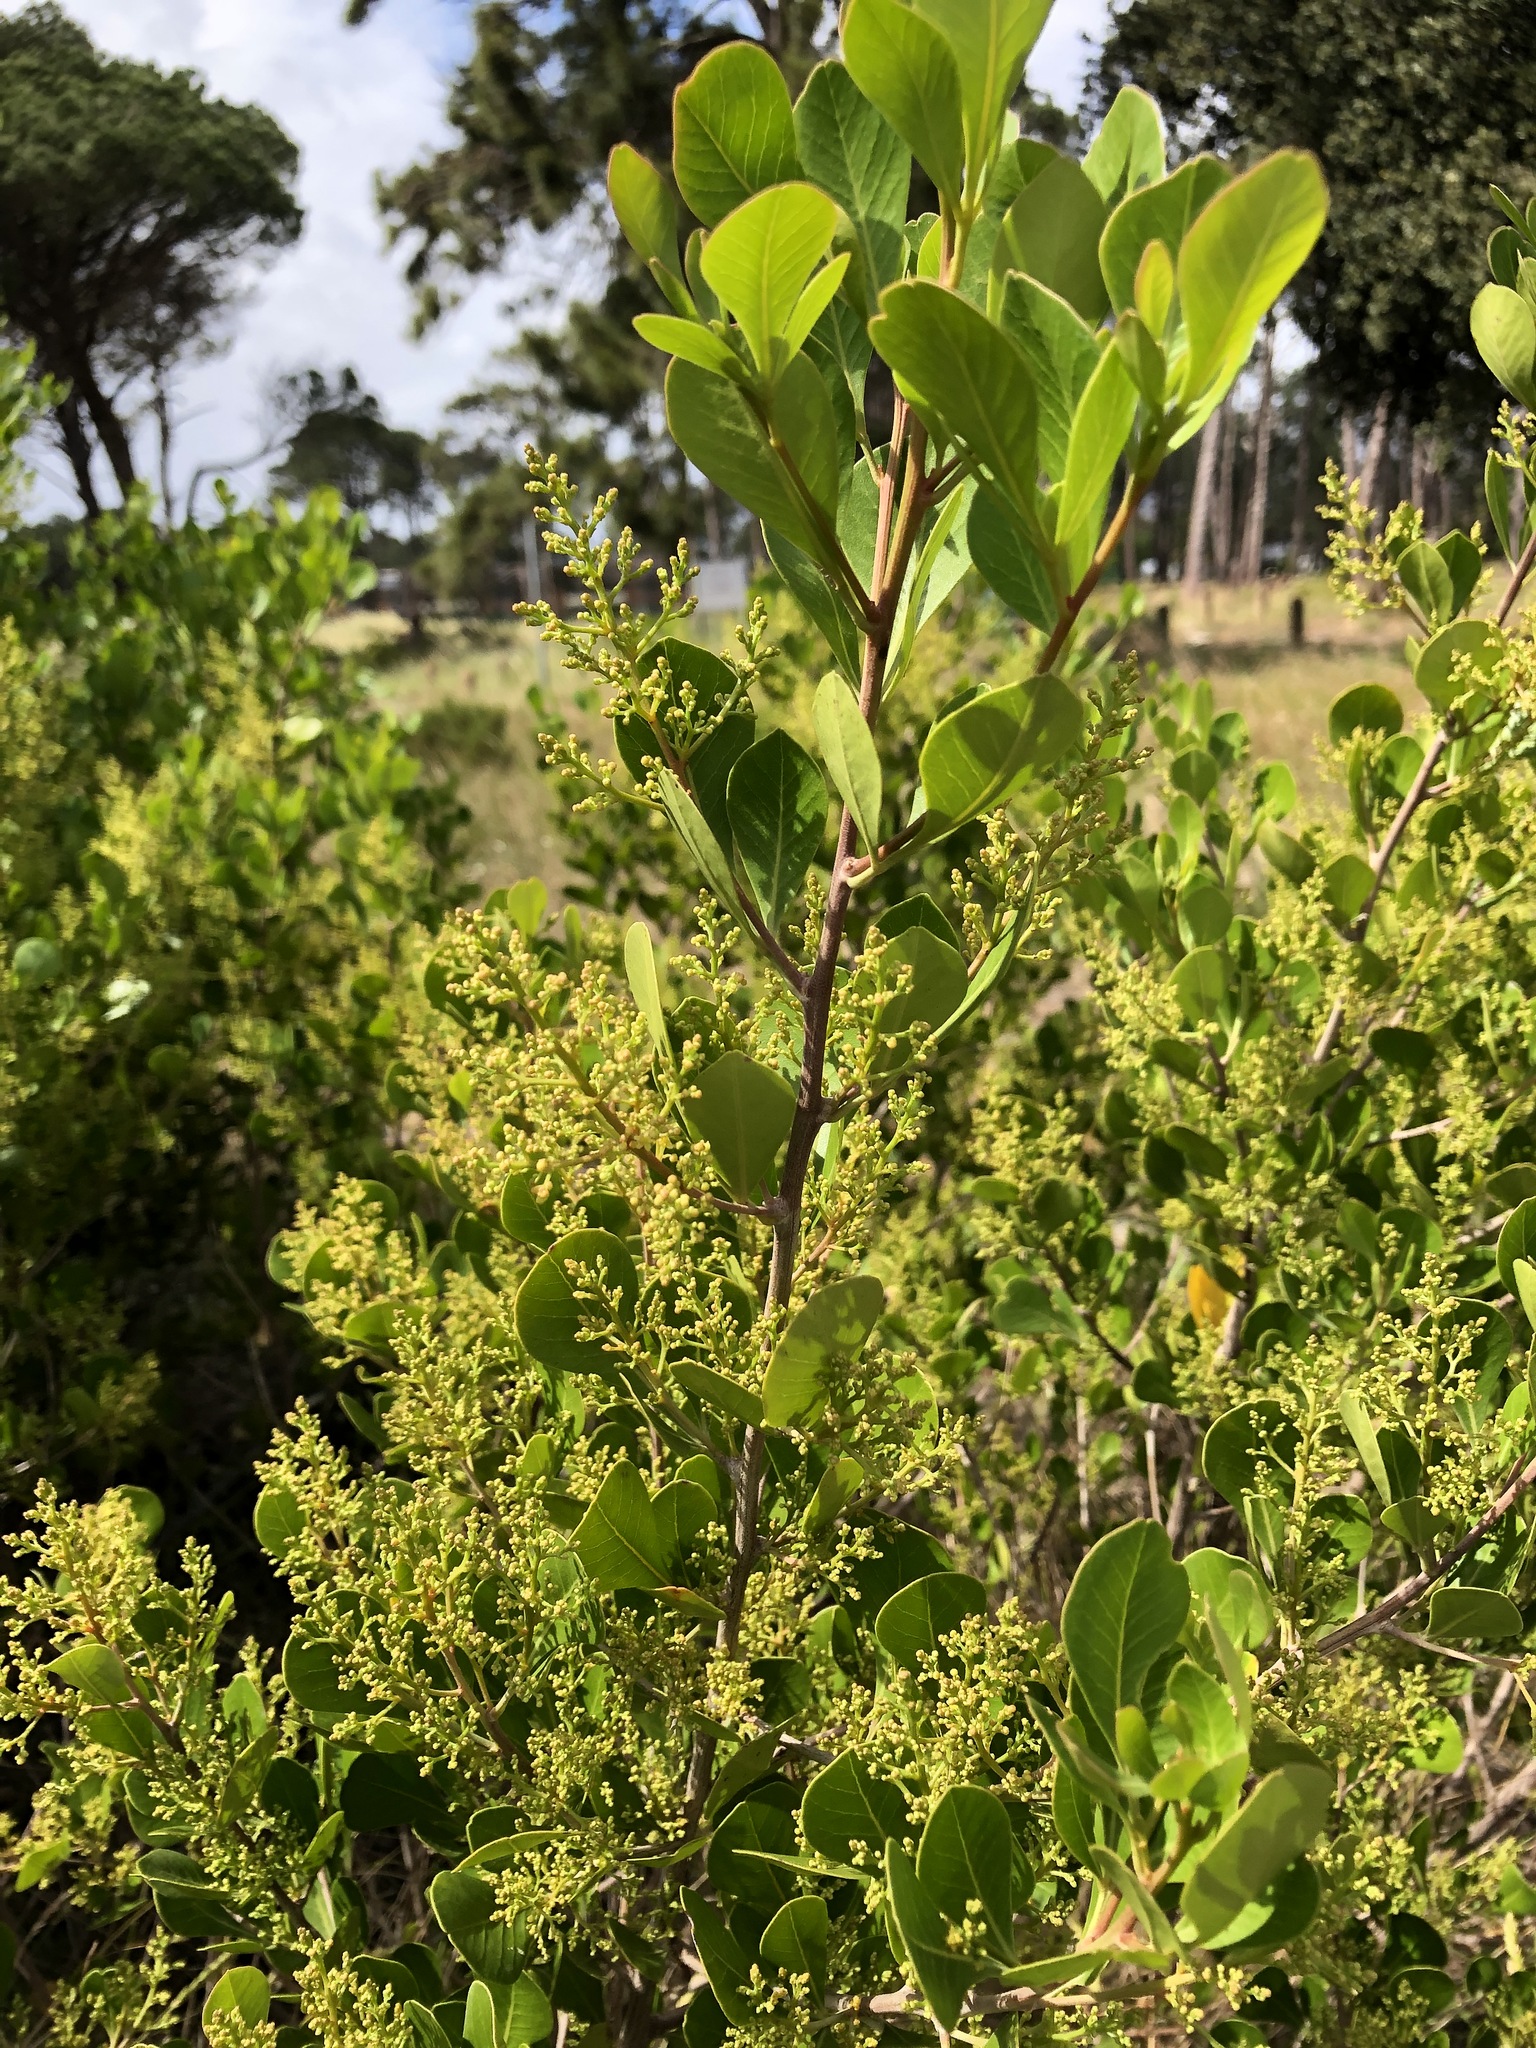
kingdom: Plantae
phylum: Tracheophyta
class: Magnoliopsida
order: Sapindales
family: Anacardiaceae
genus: Searsia
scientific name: Searsia lucida
